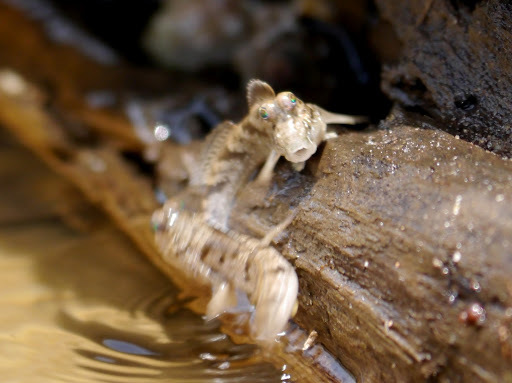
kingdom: Animalia
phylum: Chordata
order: Perciformes
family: Gobiidae
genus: Periophthalmus
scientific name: Periophthalmus barbarus
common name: Atlantic mudskipper
